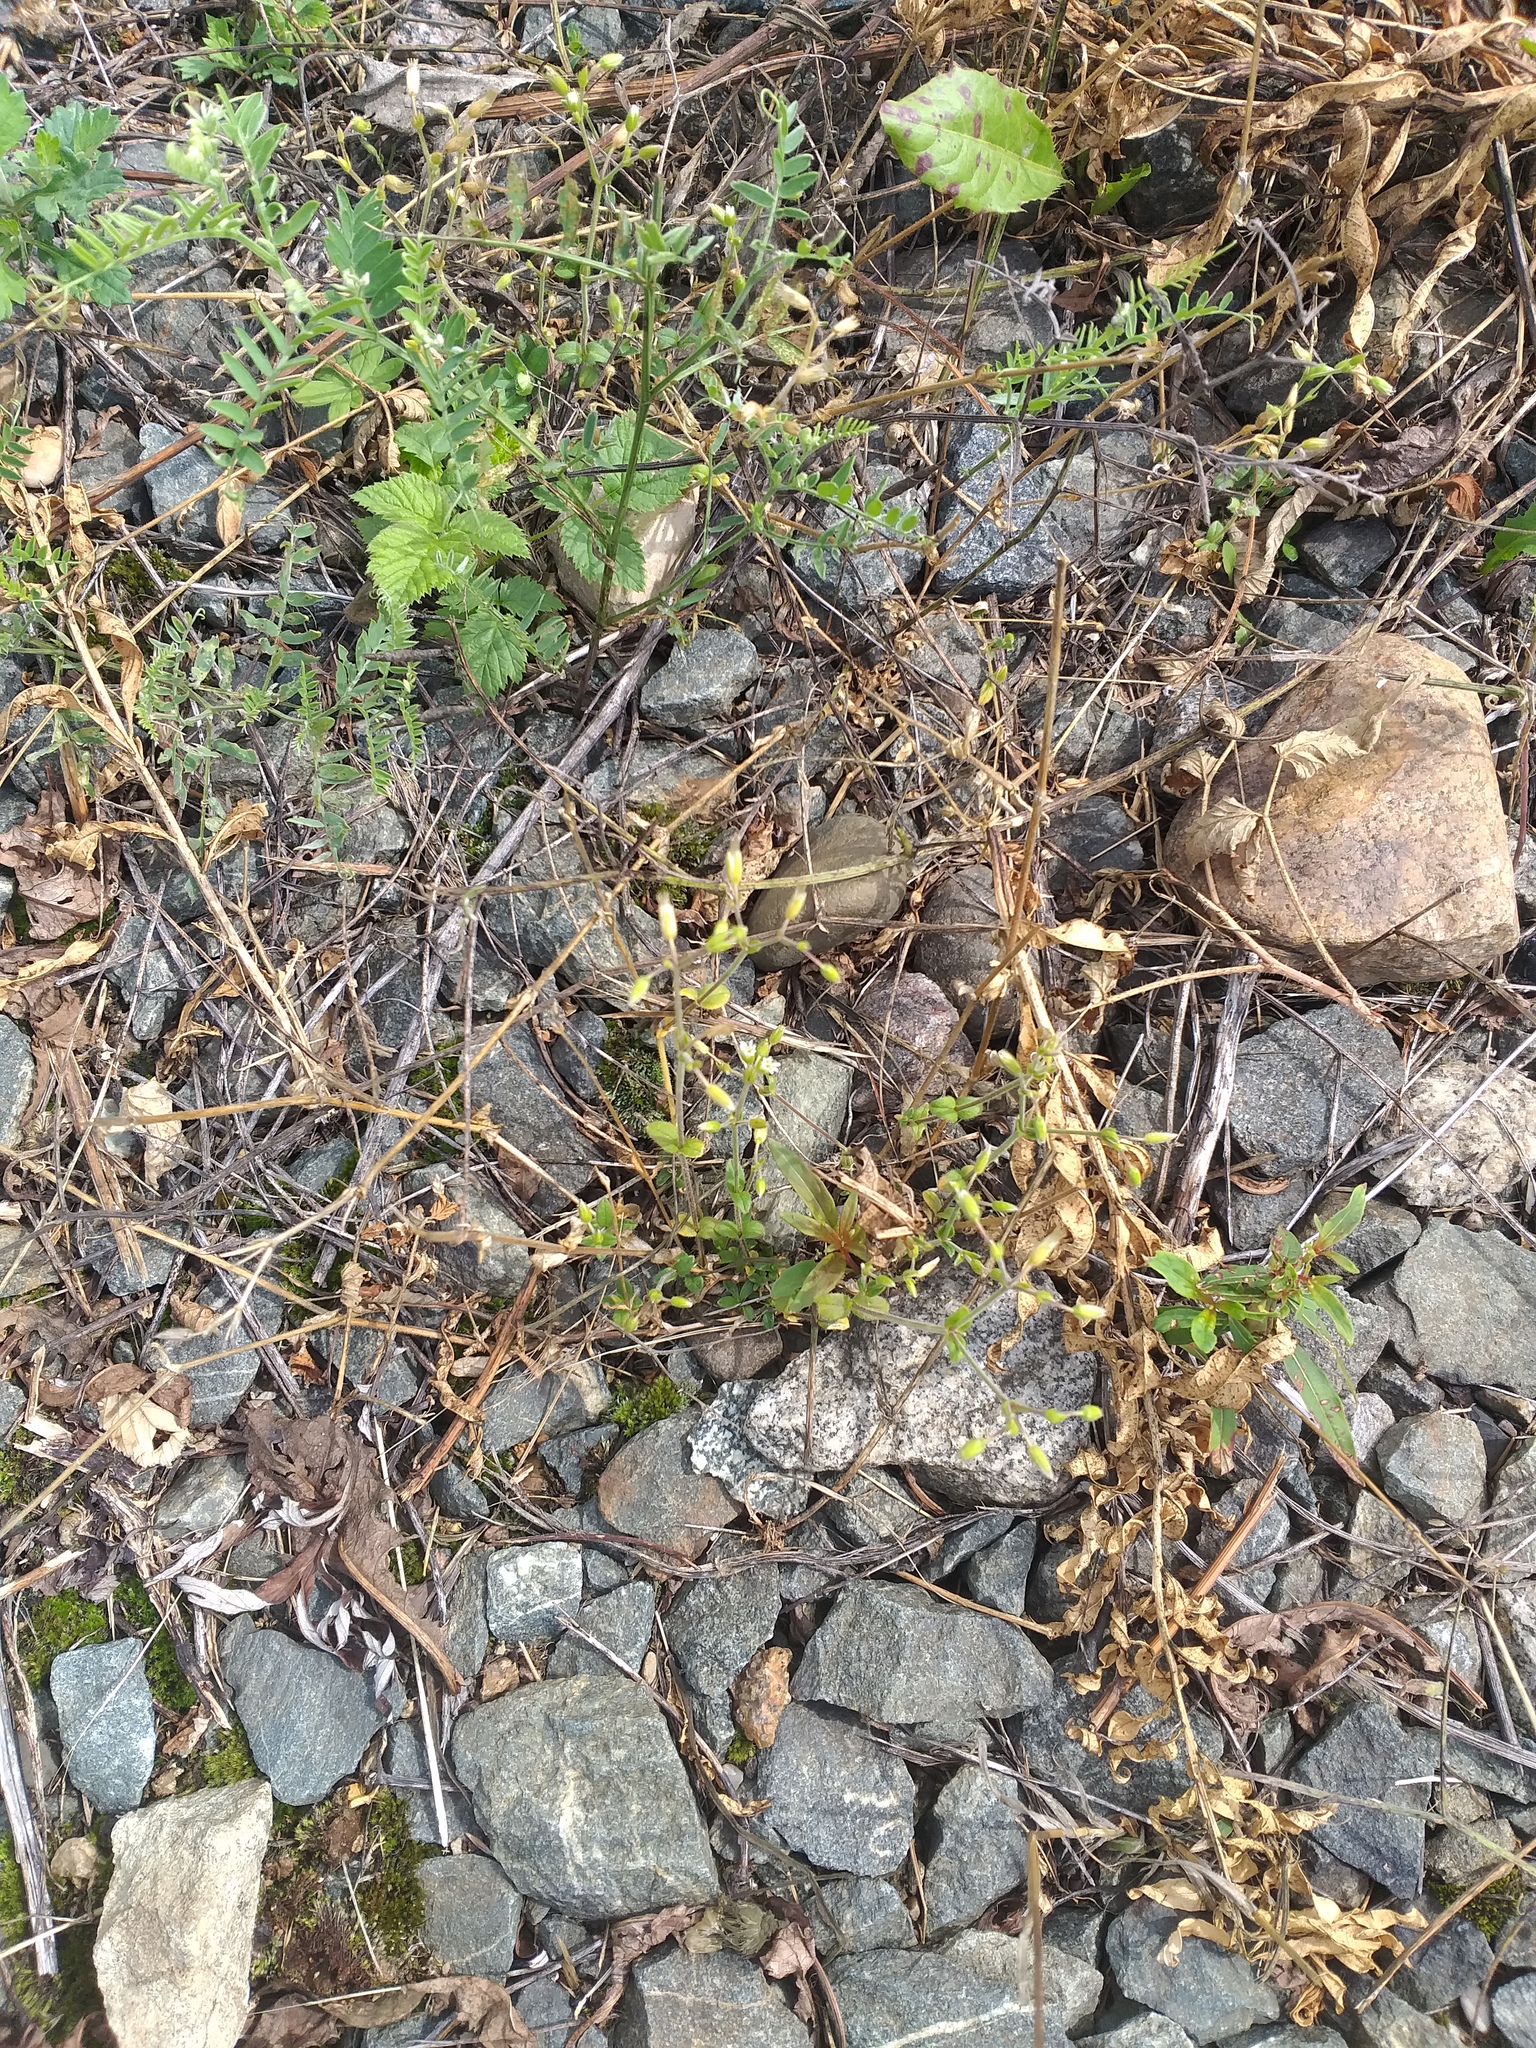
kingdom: Plantae
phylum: Tracheophyta
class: Magnoliopsida
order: Caryophyllales
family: Caryophyllaceae
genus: Cerastium
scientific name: Cerastium holosteoides
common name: Big chickweed
